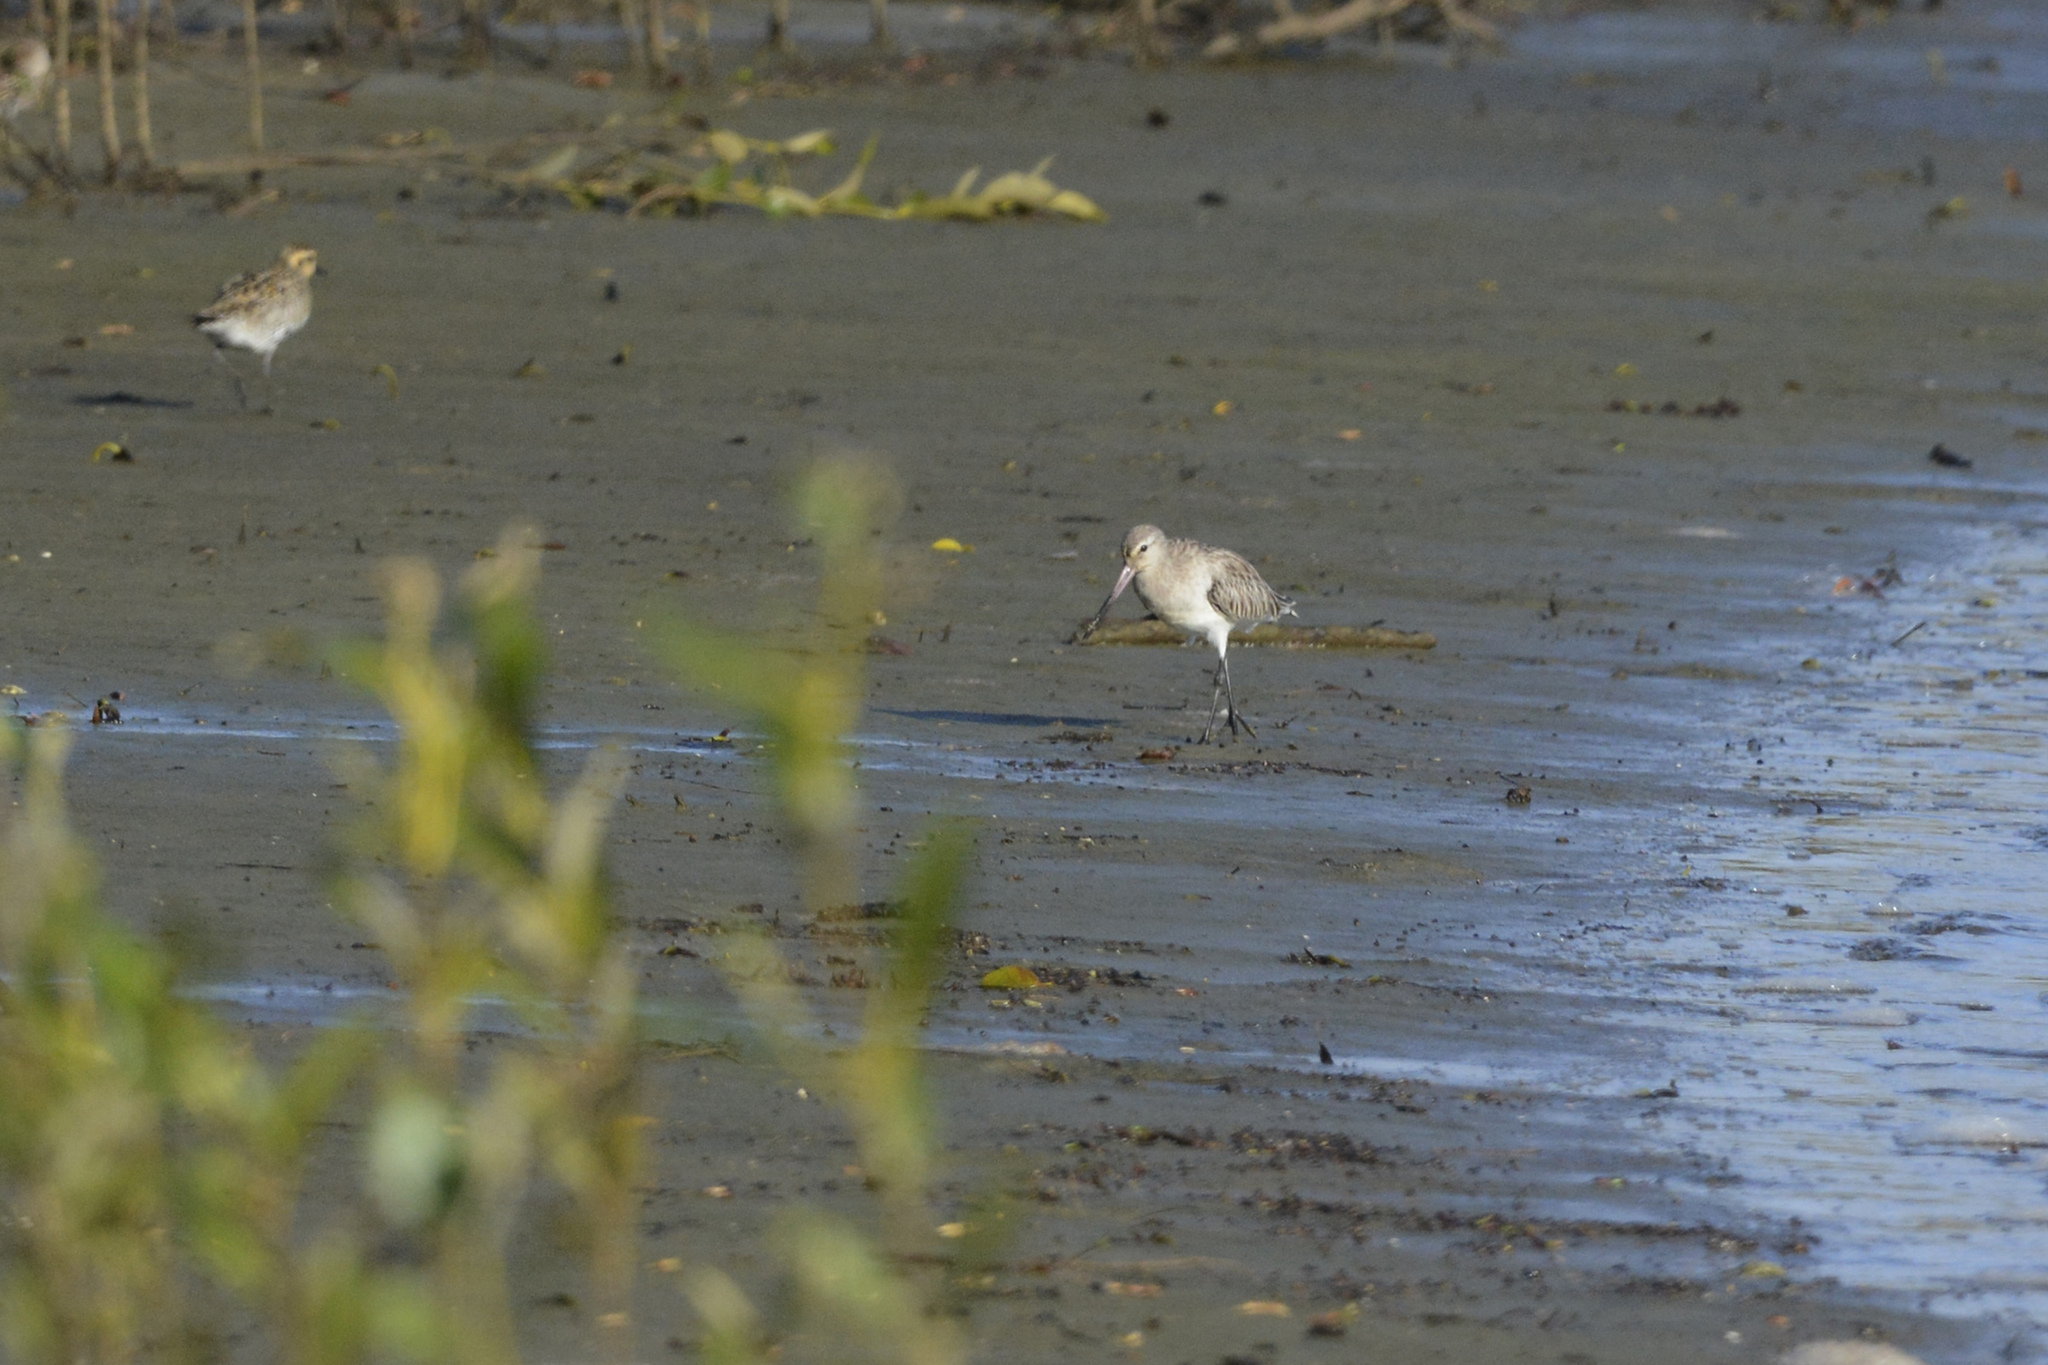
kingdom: Animalia
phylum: Chordata
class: Aves
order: Charadriiformes
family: Scolopacidae
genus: Limosa
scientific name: Limosa lapponica
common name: Bar-tailed godwit
